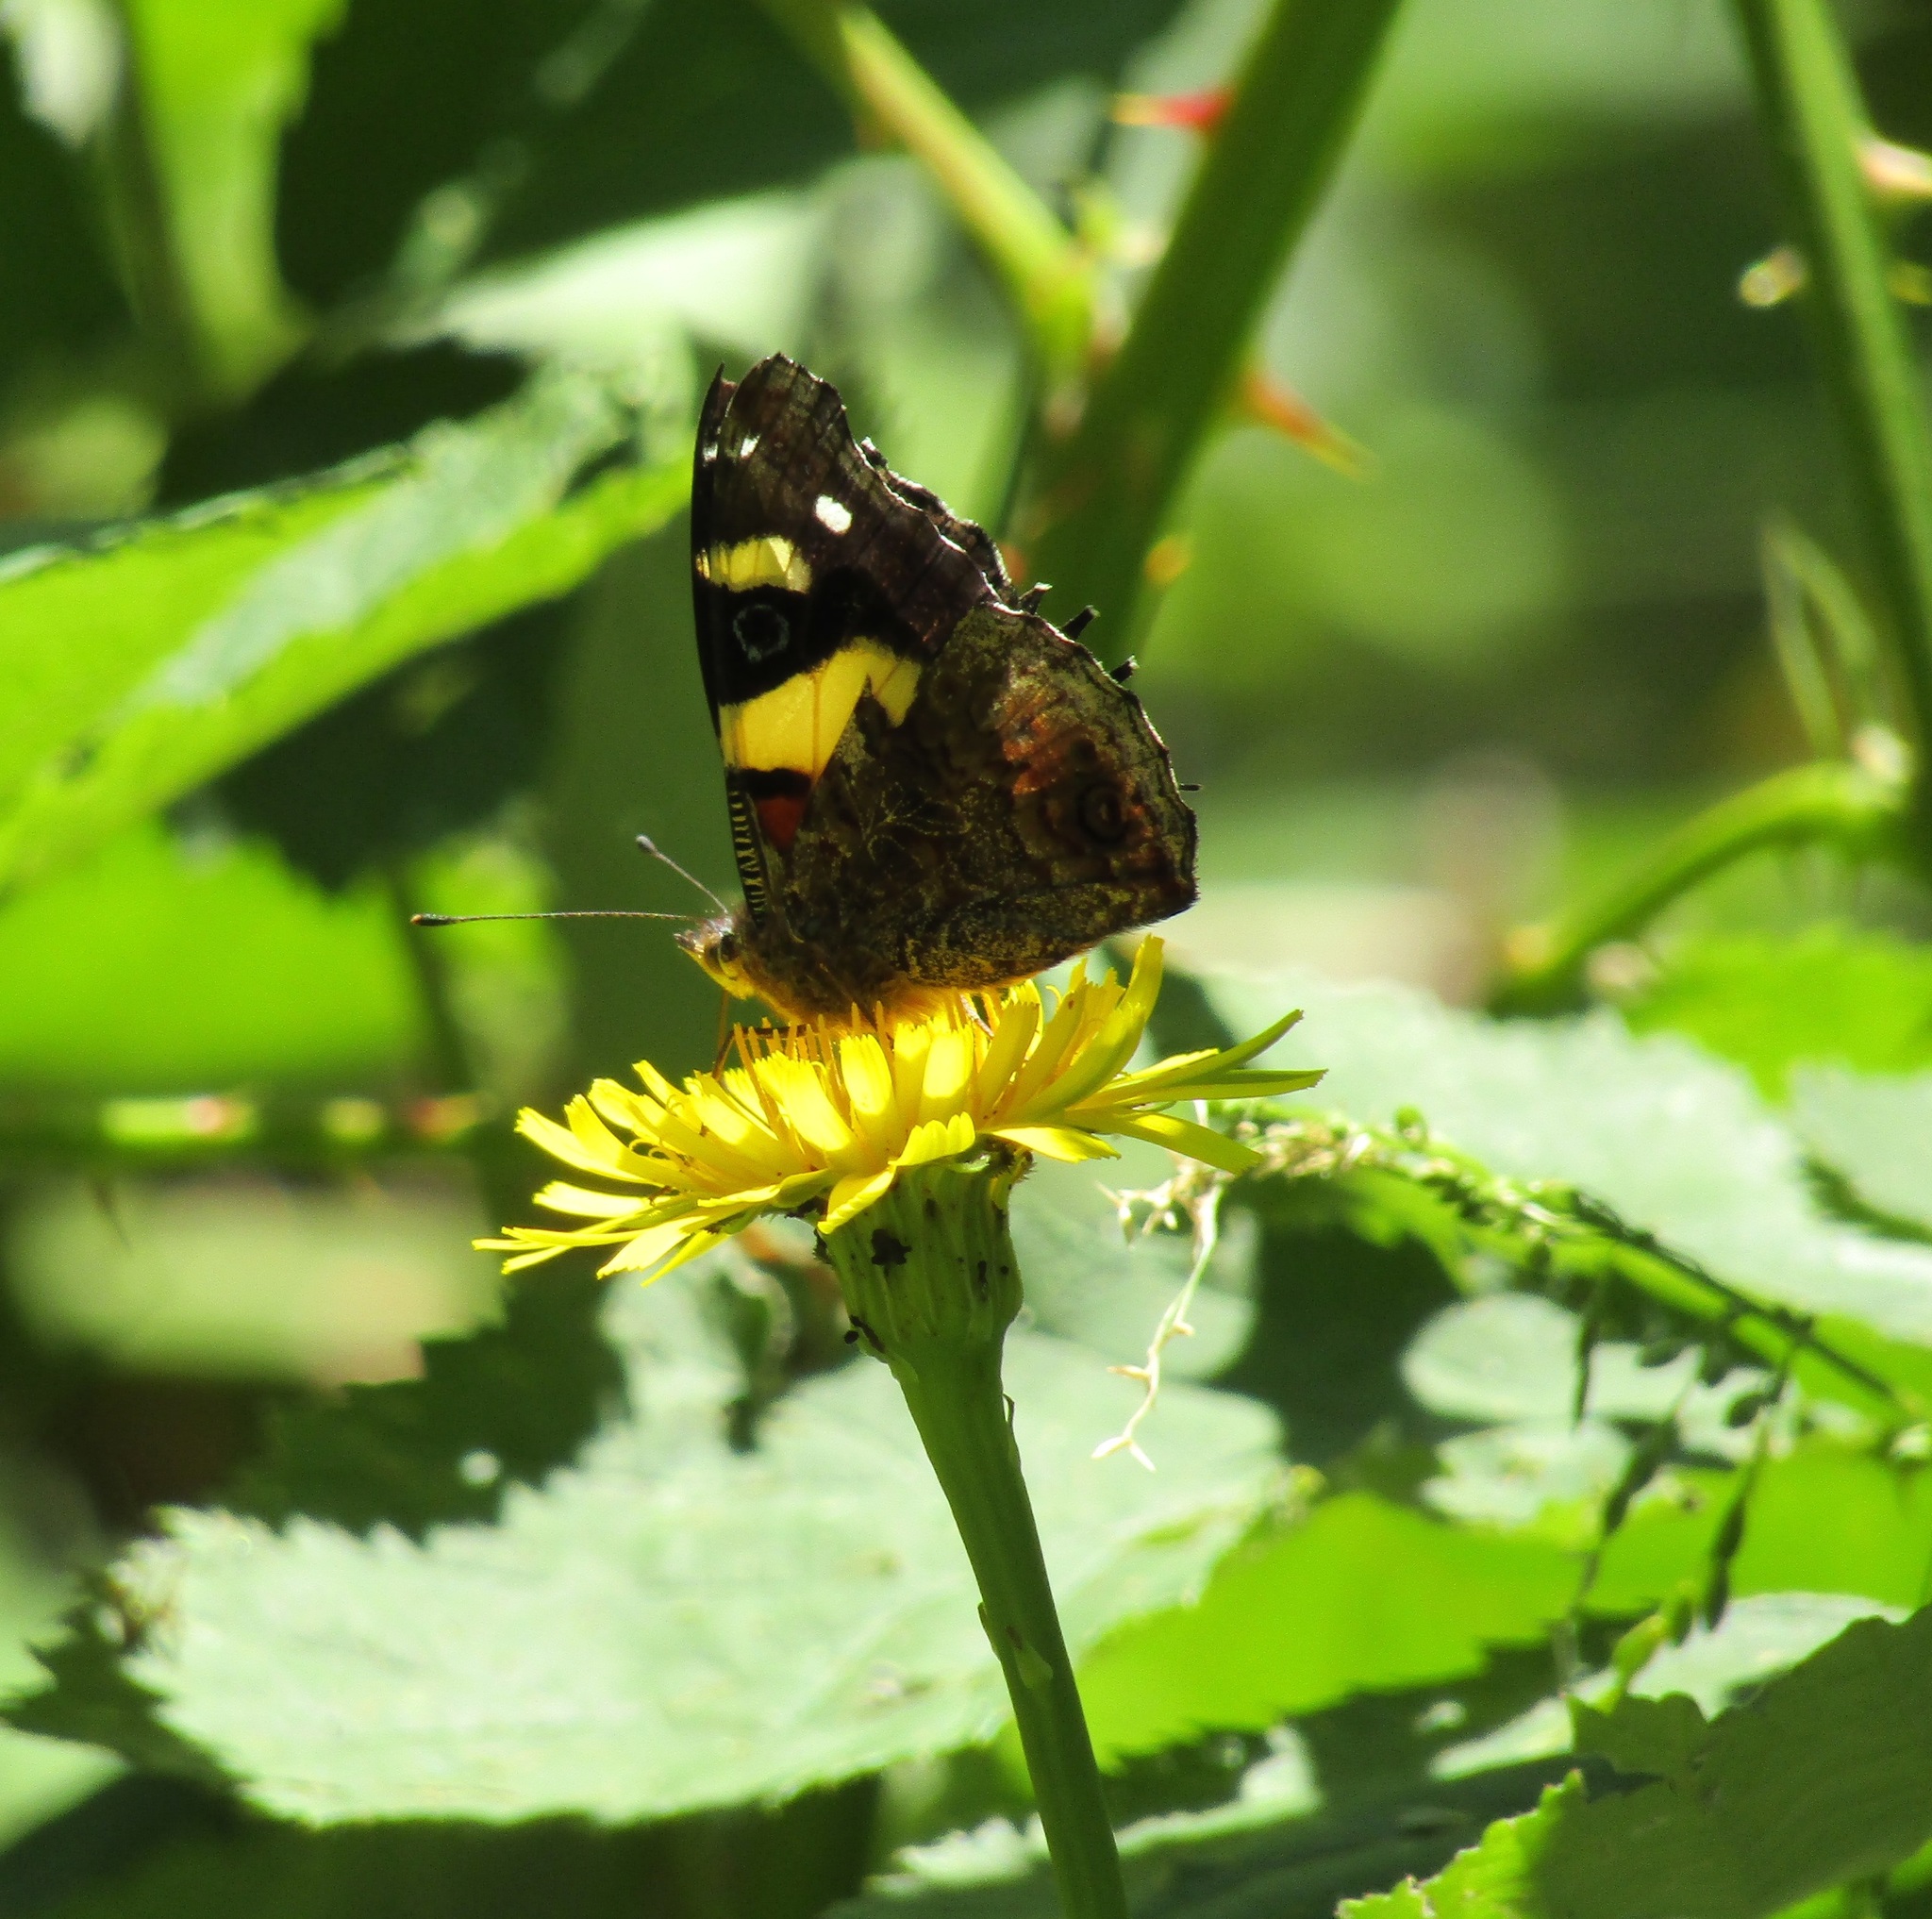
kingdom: Animalia
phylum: Arthropoda
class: Insecta
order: Lepidoptera
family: Nymphalidae
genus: Vanessa
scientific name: Vanessa itea
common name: Yellow admiral
